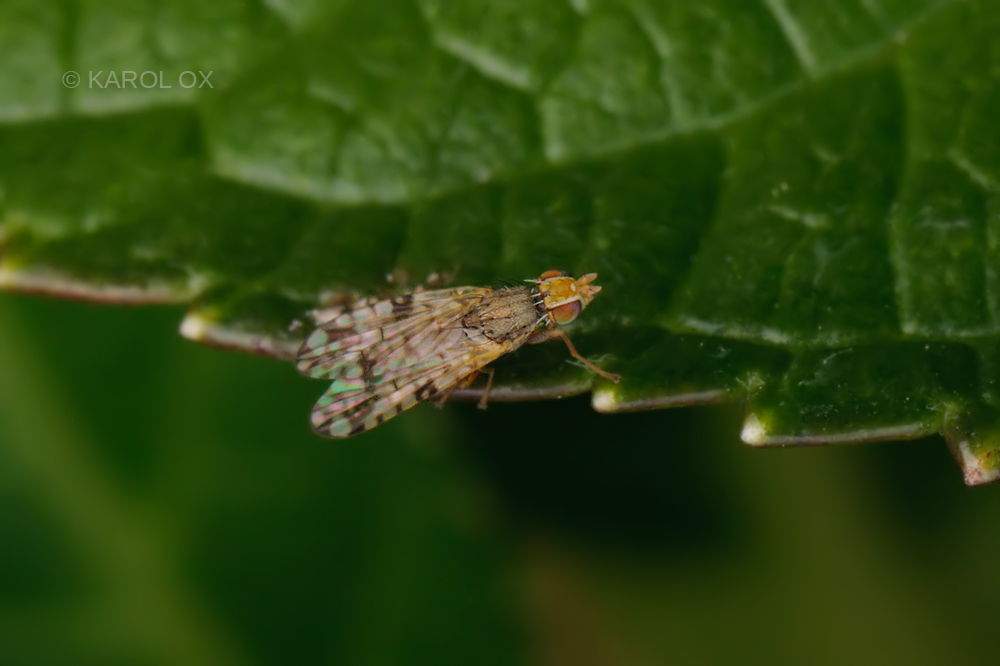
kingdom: Animalia
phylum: Arthropoda
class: Insecta
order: Diptera
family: Tephritidae
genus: Dioxyna
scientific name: Dioxyna bidentis
